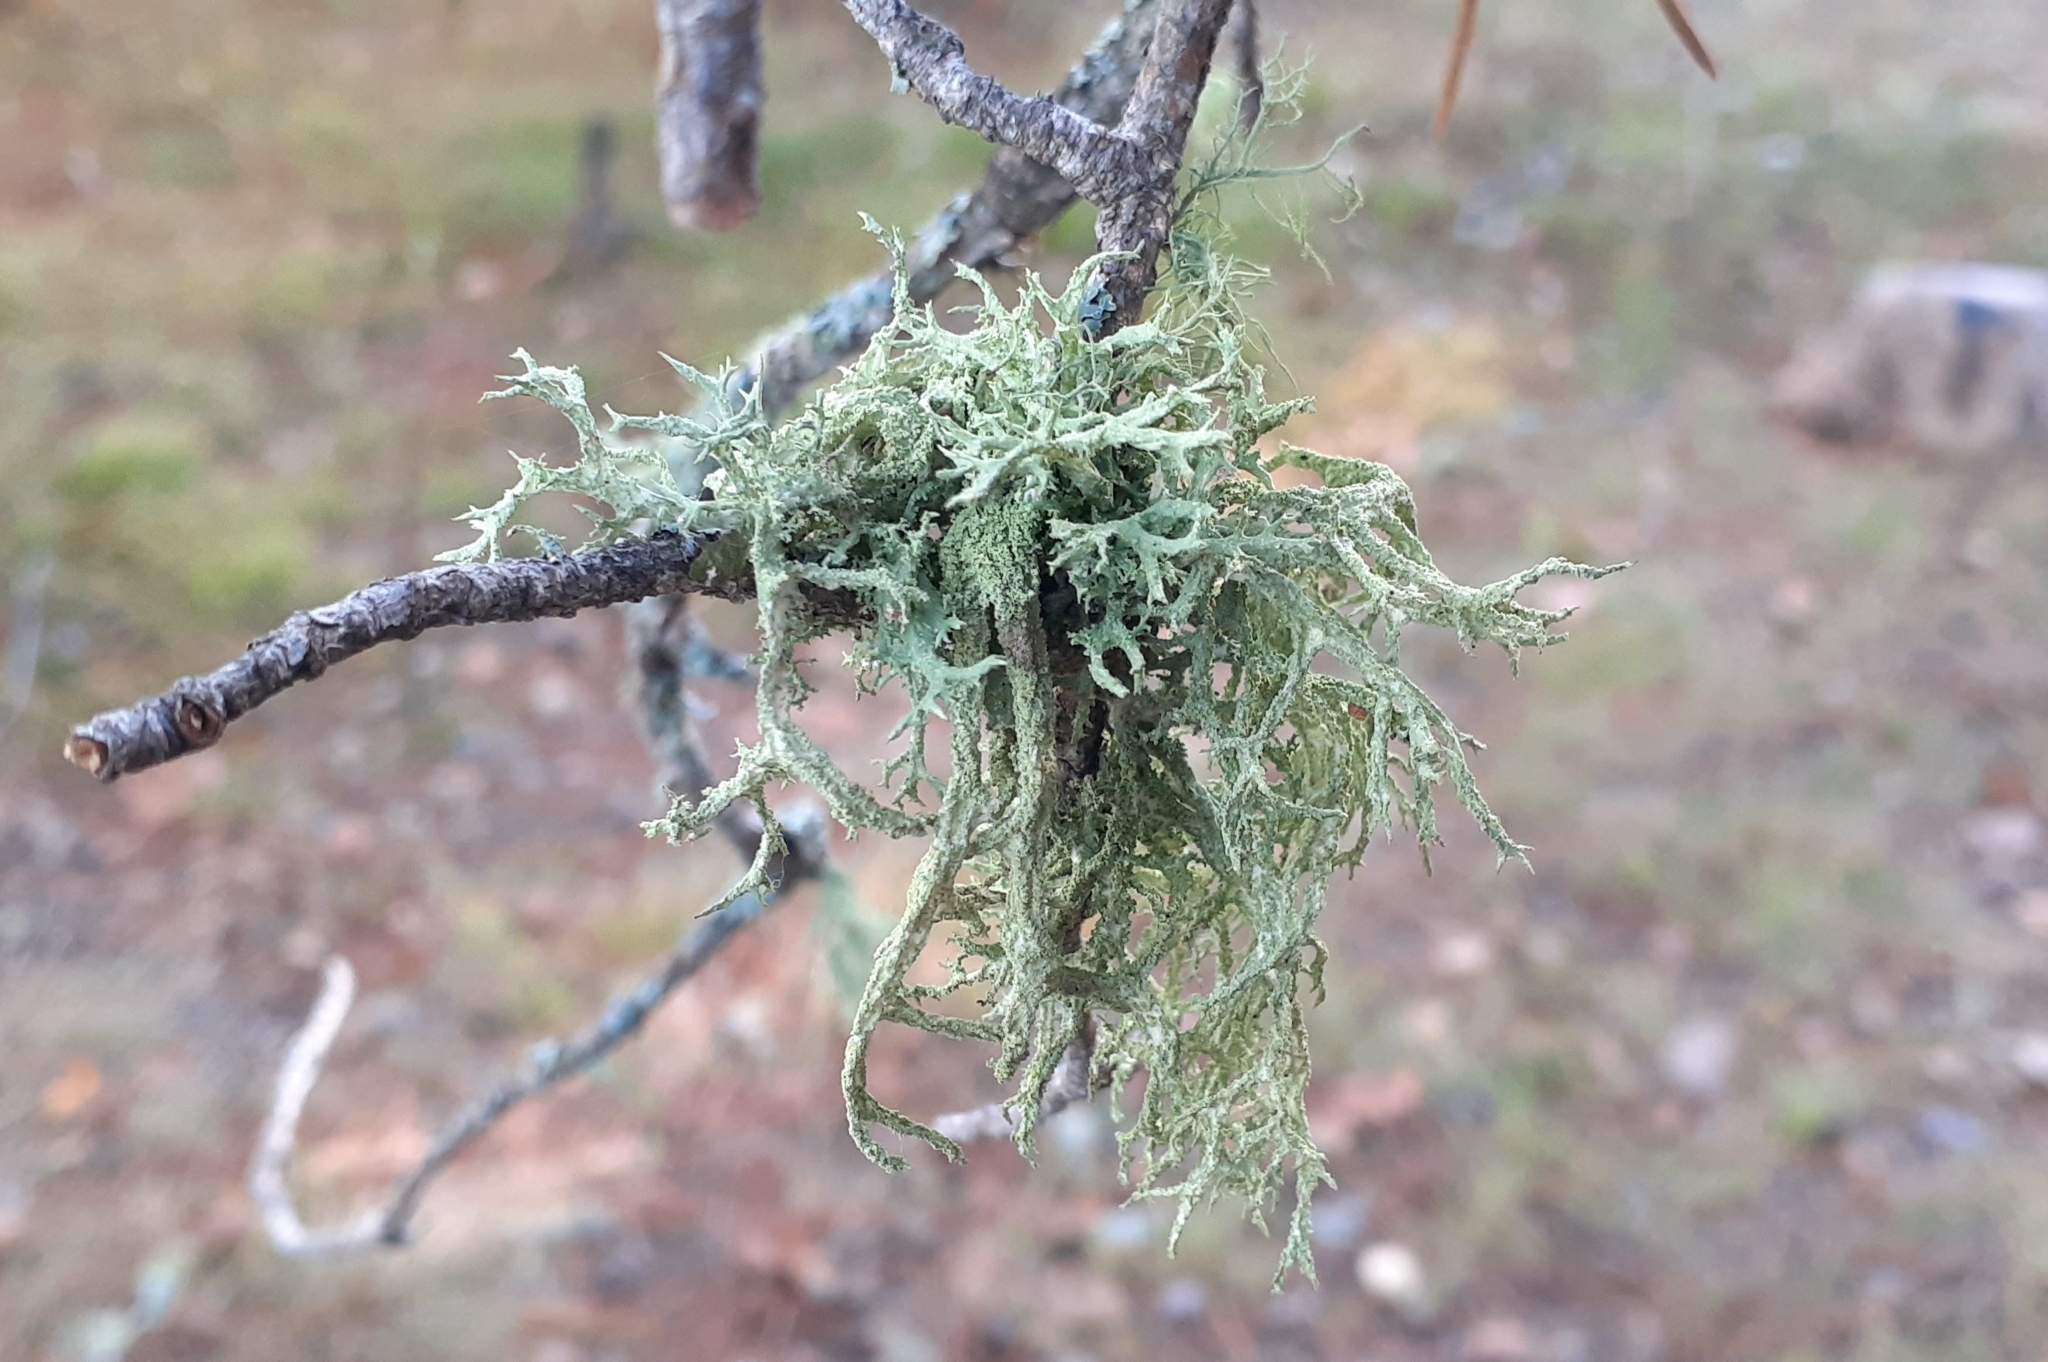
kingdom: Fungi
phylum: Ascomycota
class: Lecanoromycetes
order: Lecanorales
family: Parmeliaceae
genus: Evernia
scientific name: Evernia mesomorpha
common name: Boreal oak moss lichen
